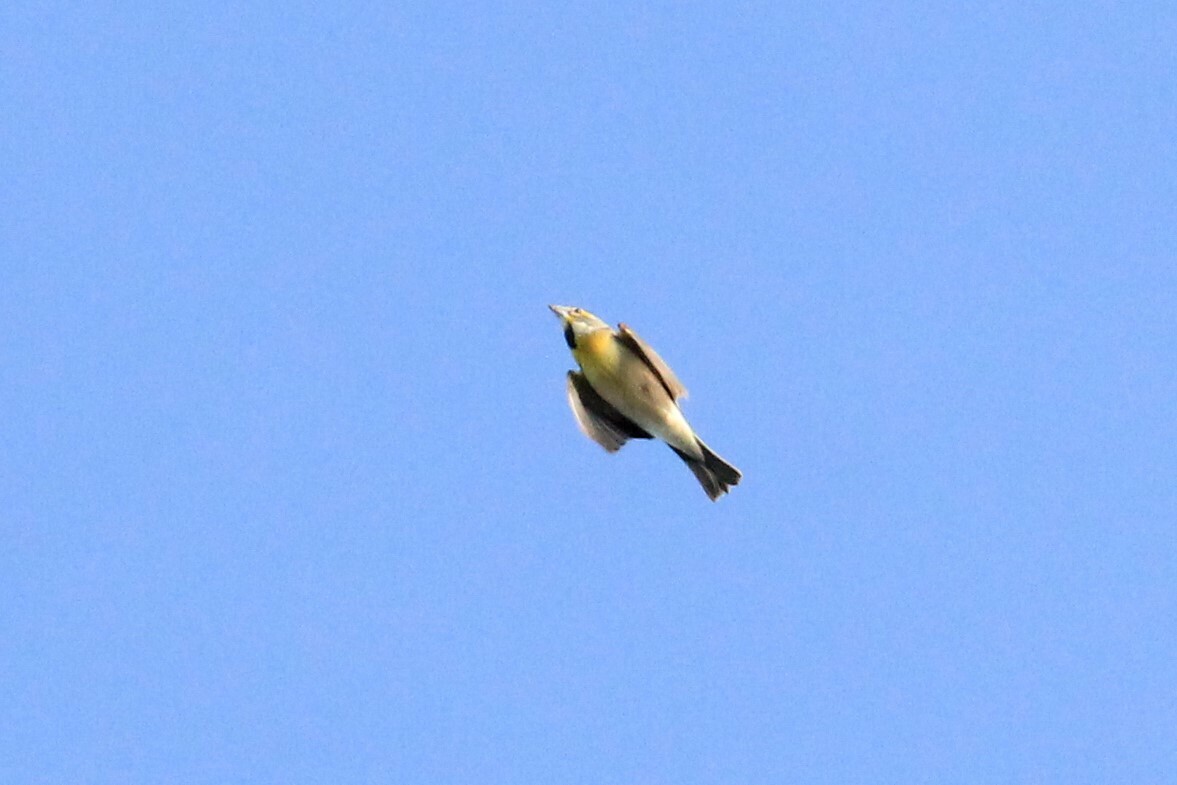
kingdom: Animalia
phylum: Chordata
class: Aves
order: Passeriformes
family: Cardinalidae
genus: Spiza
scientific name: Spiza americana
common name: Dickcissel
